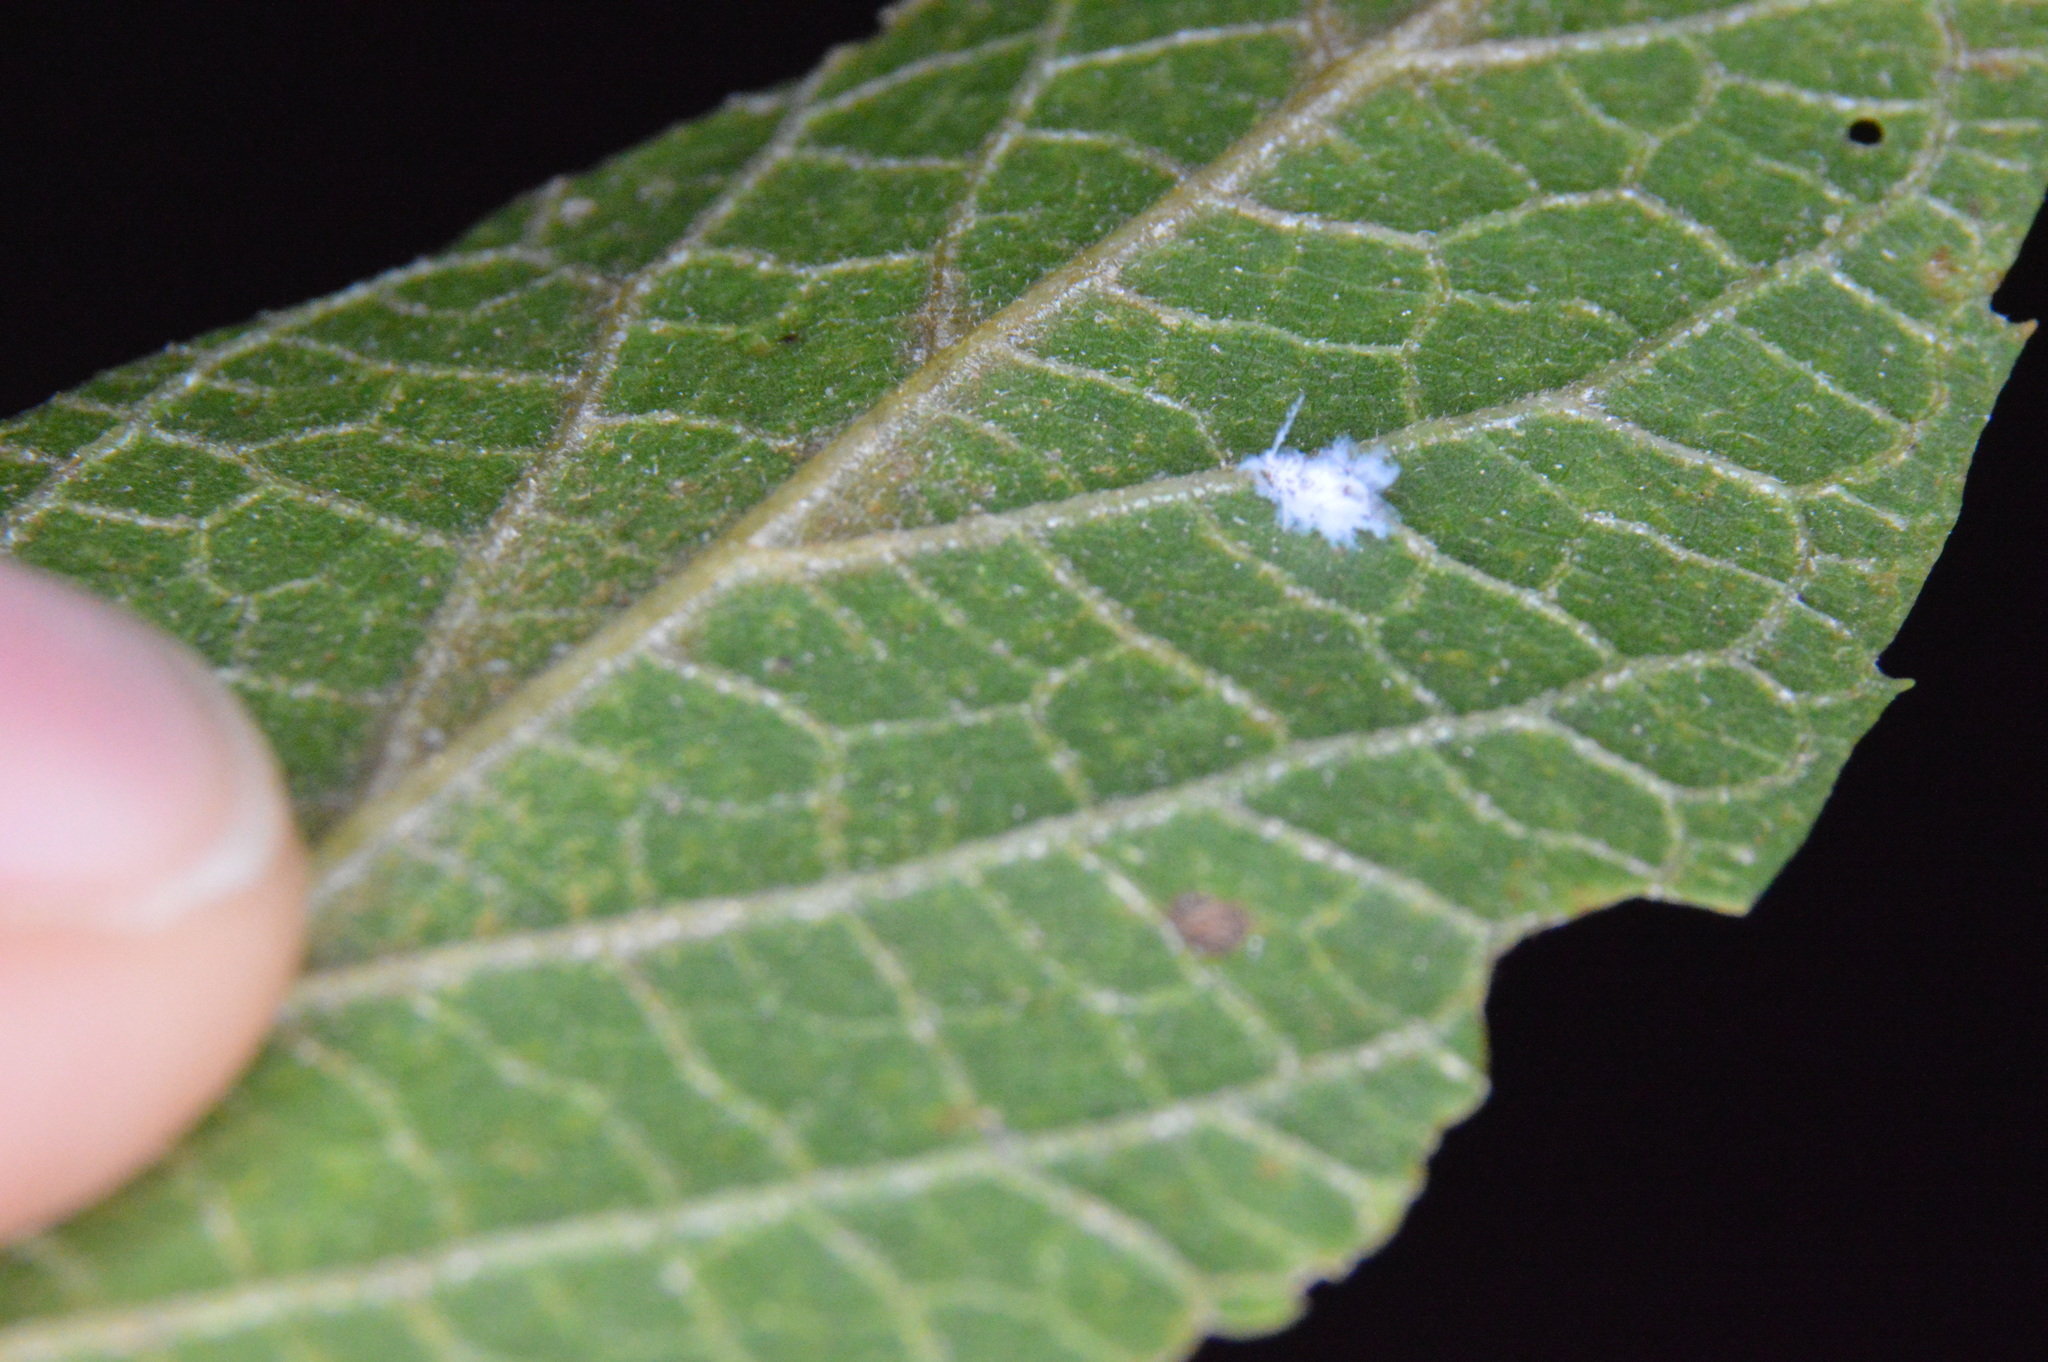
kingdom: Animalia
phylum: Arthropoda
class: Insecta
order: Hemiptera
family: Aphididae
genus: Shivaphis
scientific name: Shivaphis celti
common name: Asian wooly hackberry aphid
